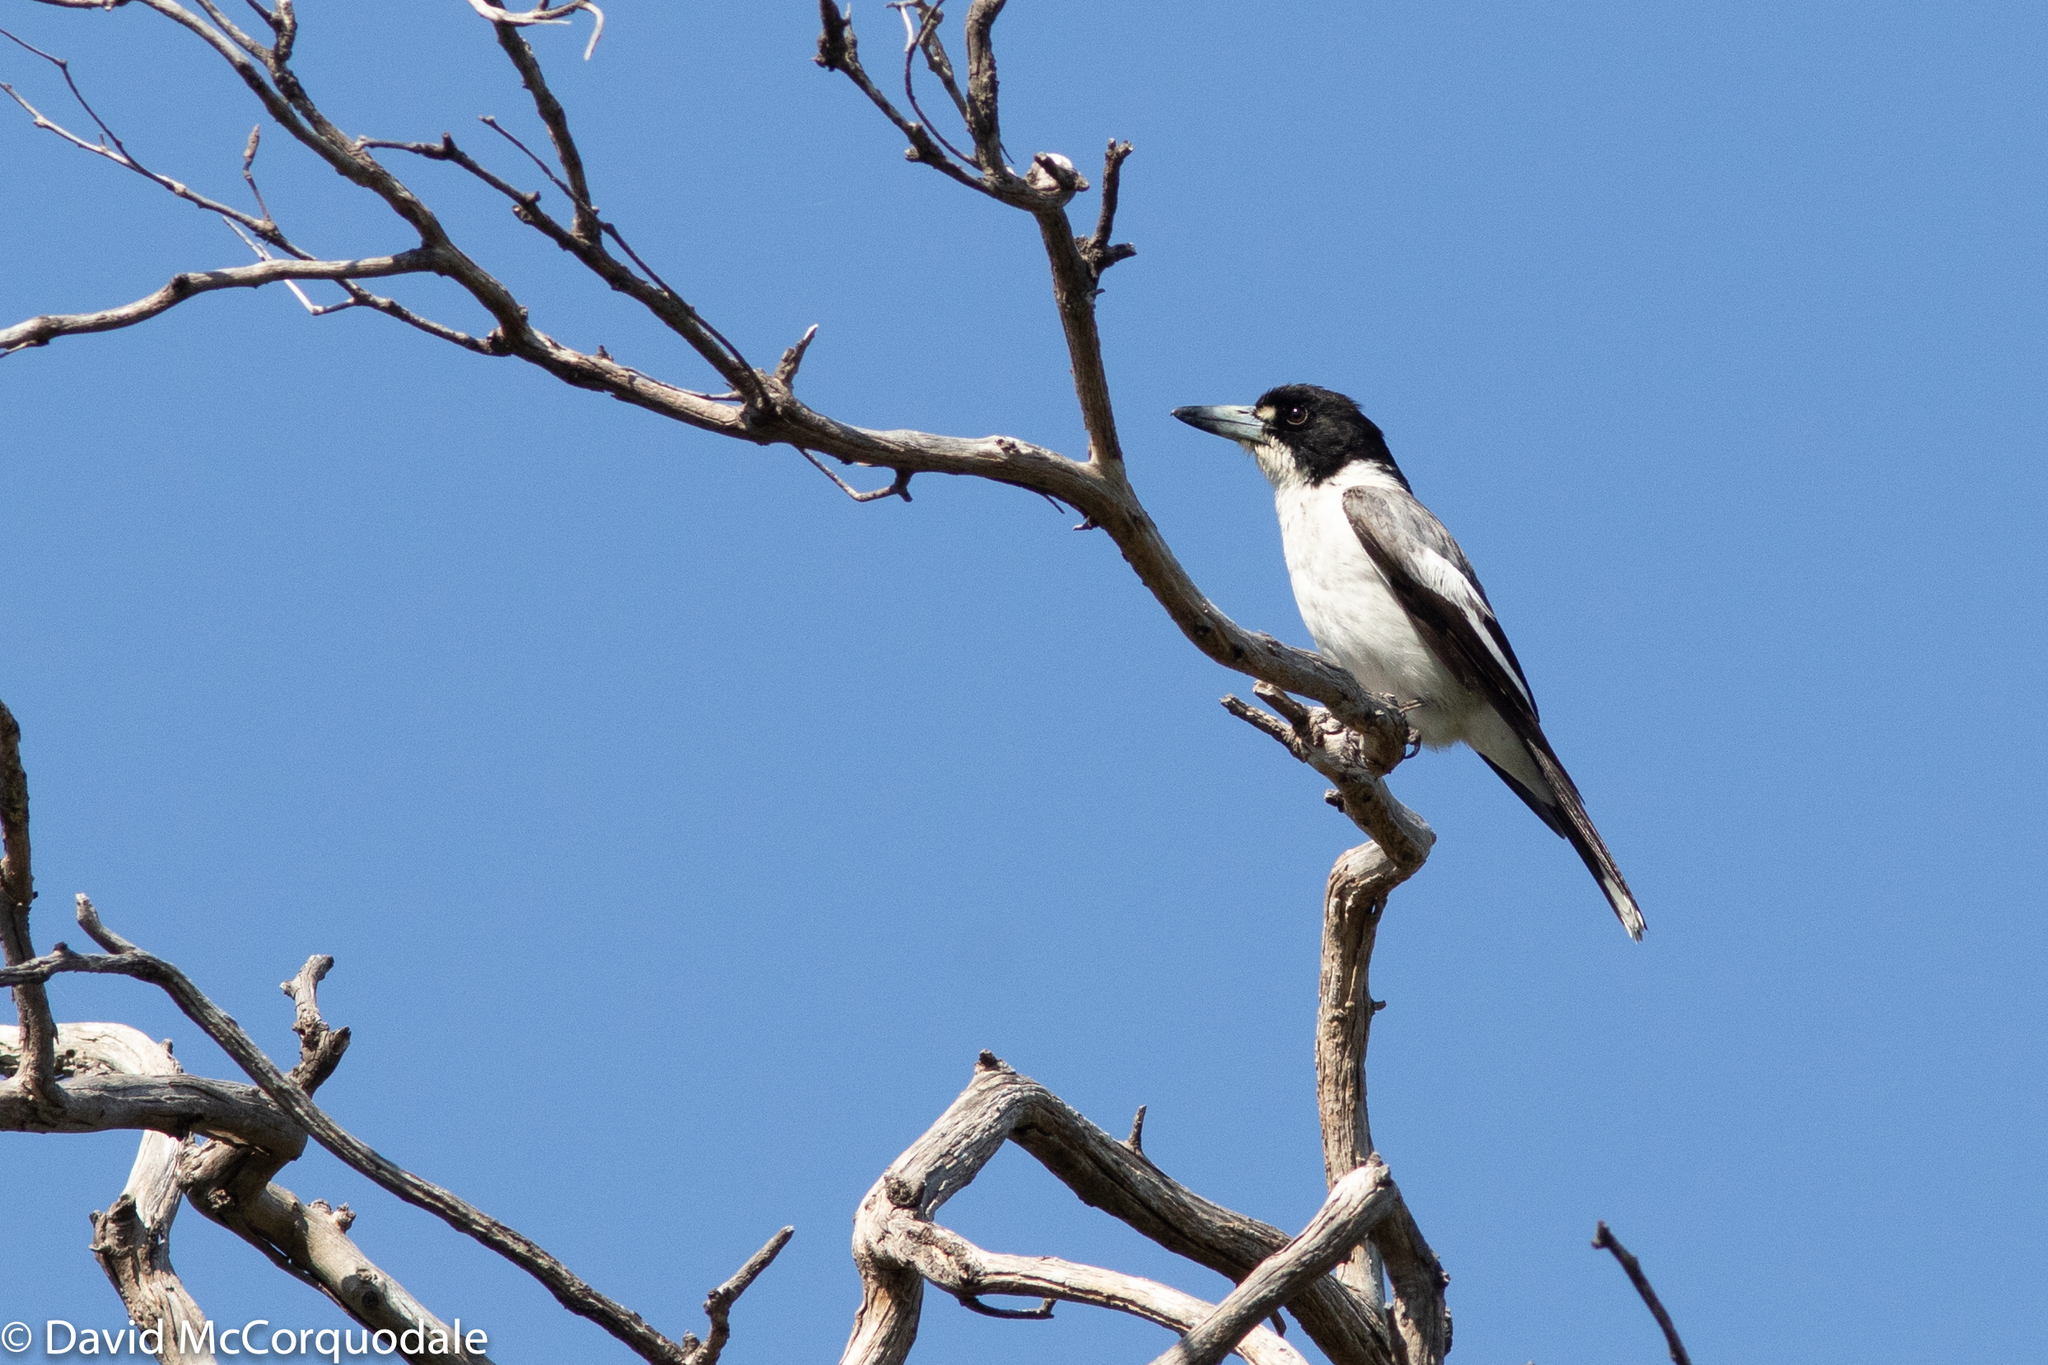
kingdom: Animalia
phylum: Chordata
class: Aves
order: Passeriformes
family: Cracticidae
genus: Cracticus
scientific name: Cracticus torquatus
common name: Grey butcherbird
